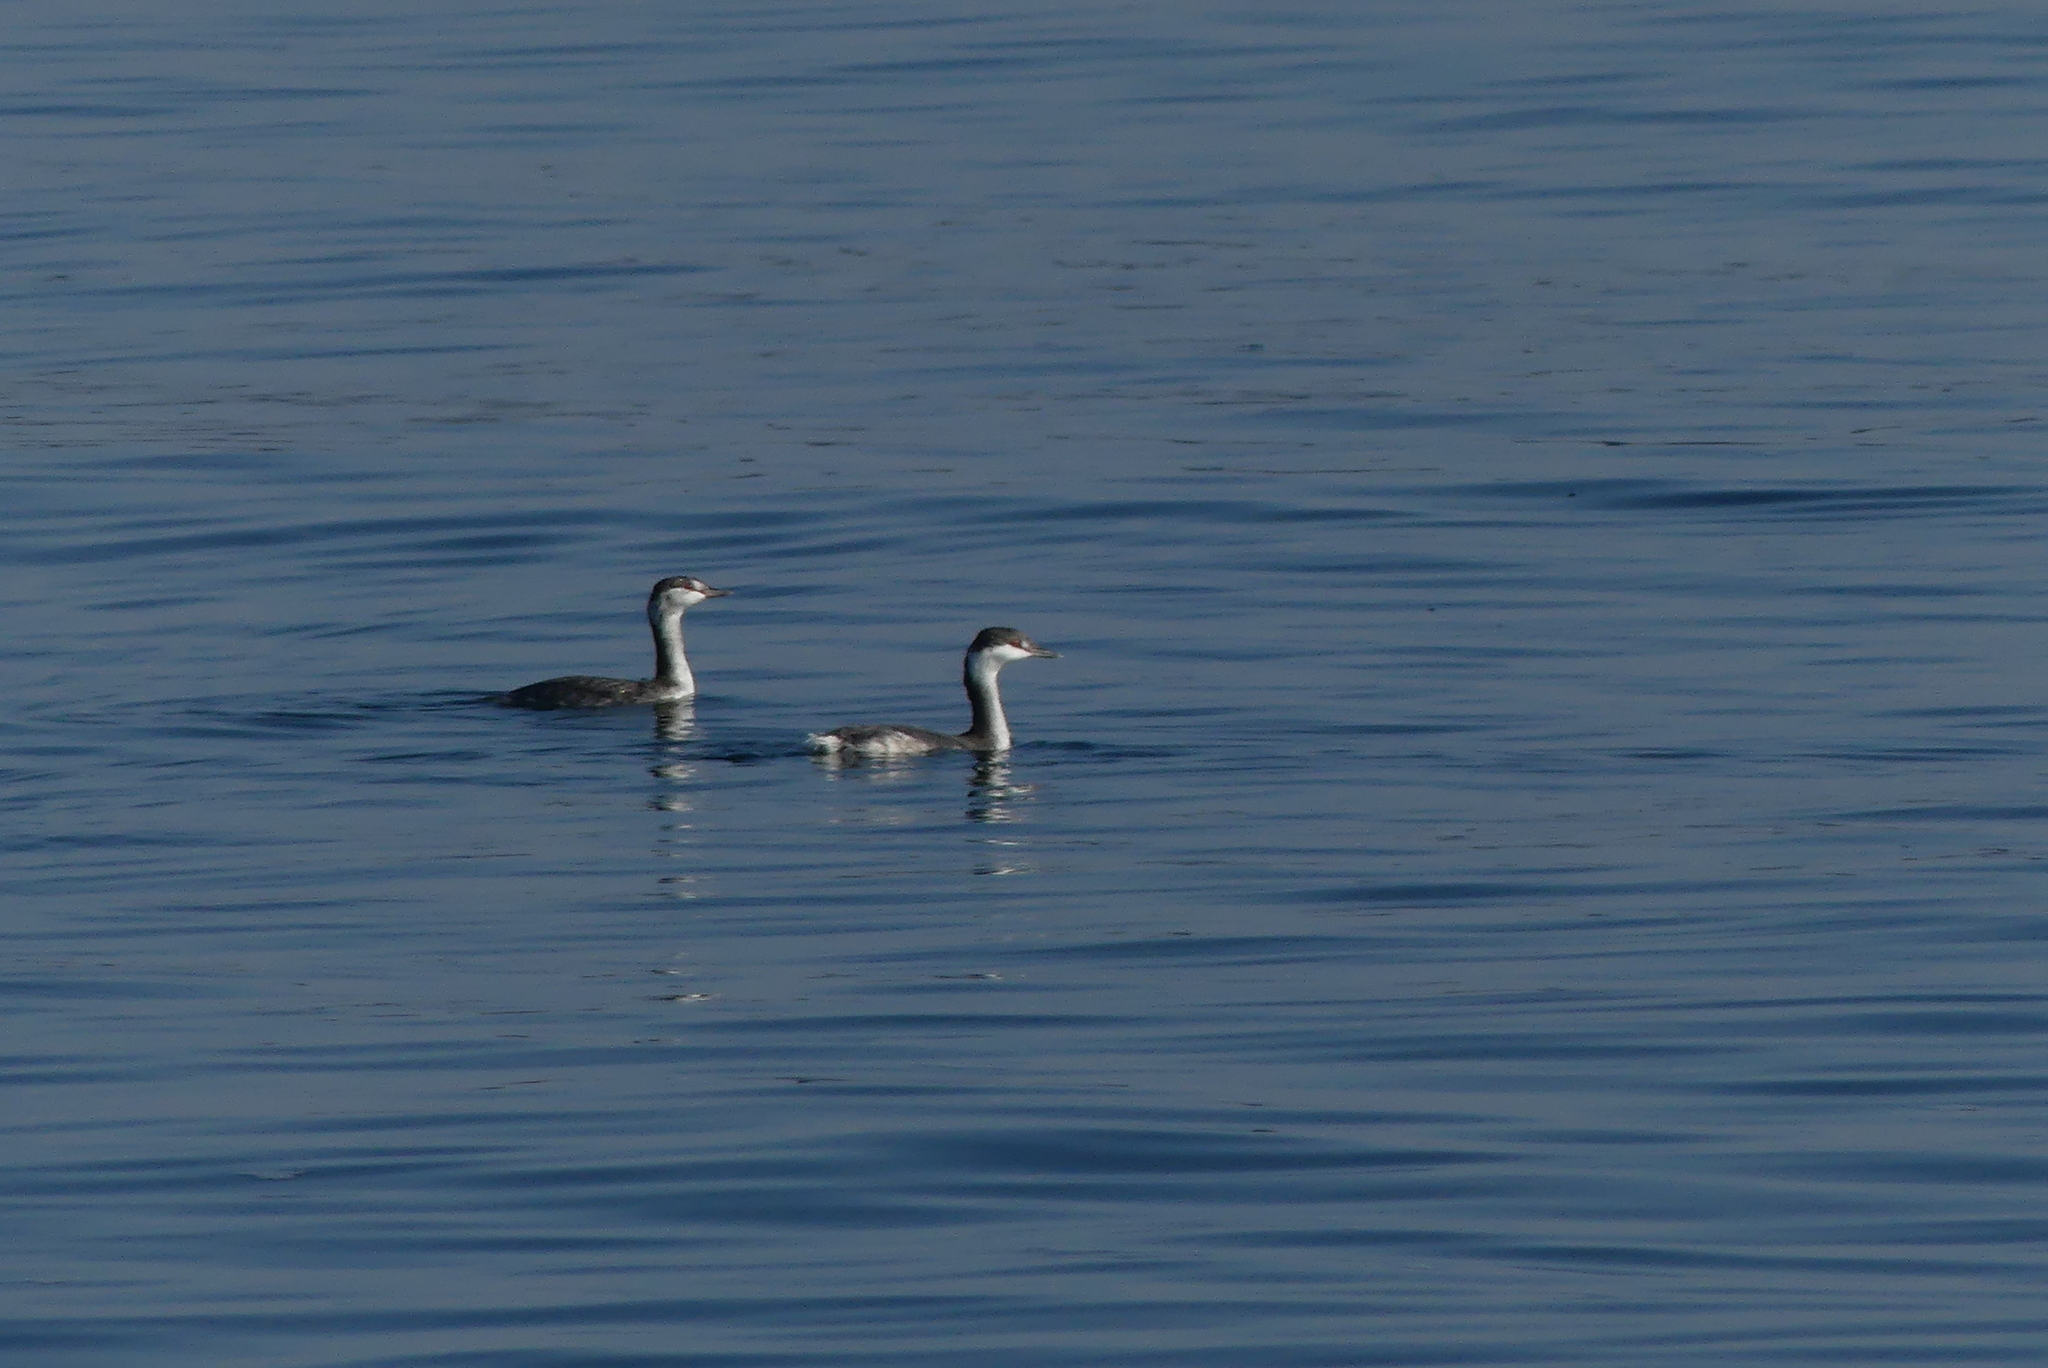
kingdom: Animalia
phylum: Chordata
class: Aves
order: Podicipediformes
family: Podicipedidae
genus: Podiceps
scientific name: Podiceps auritus
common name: Horned grebe
